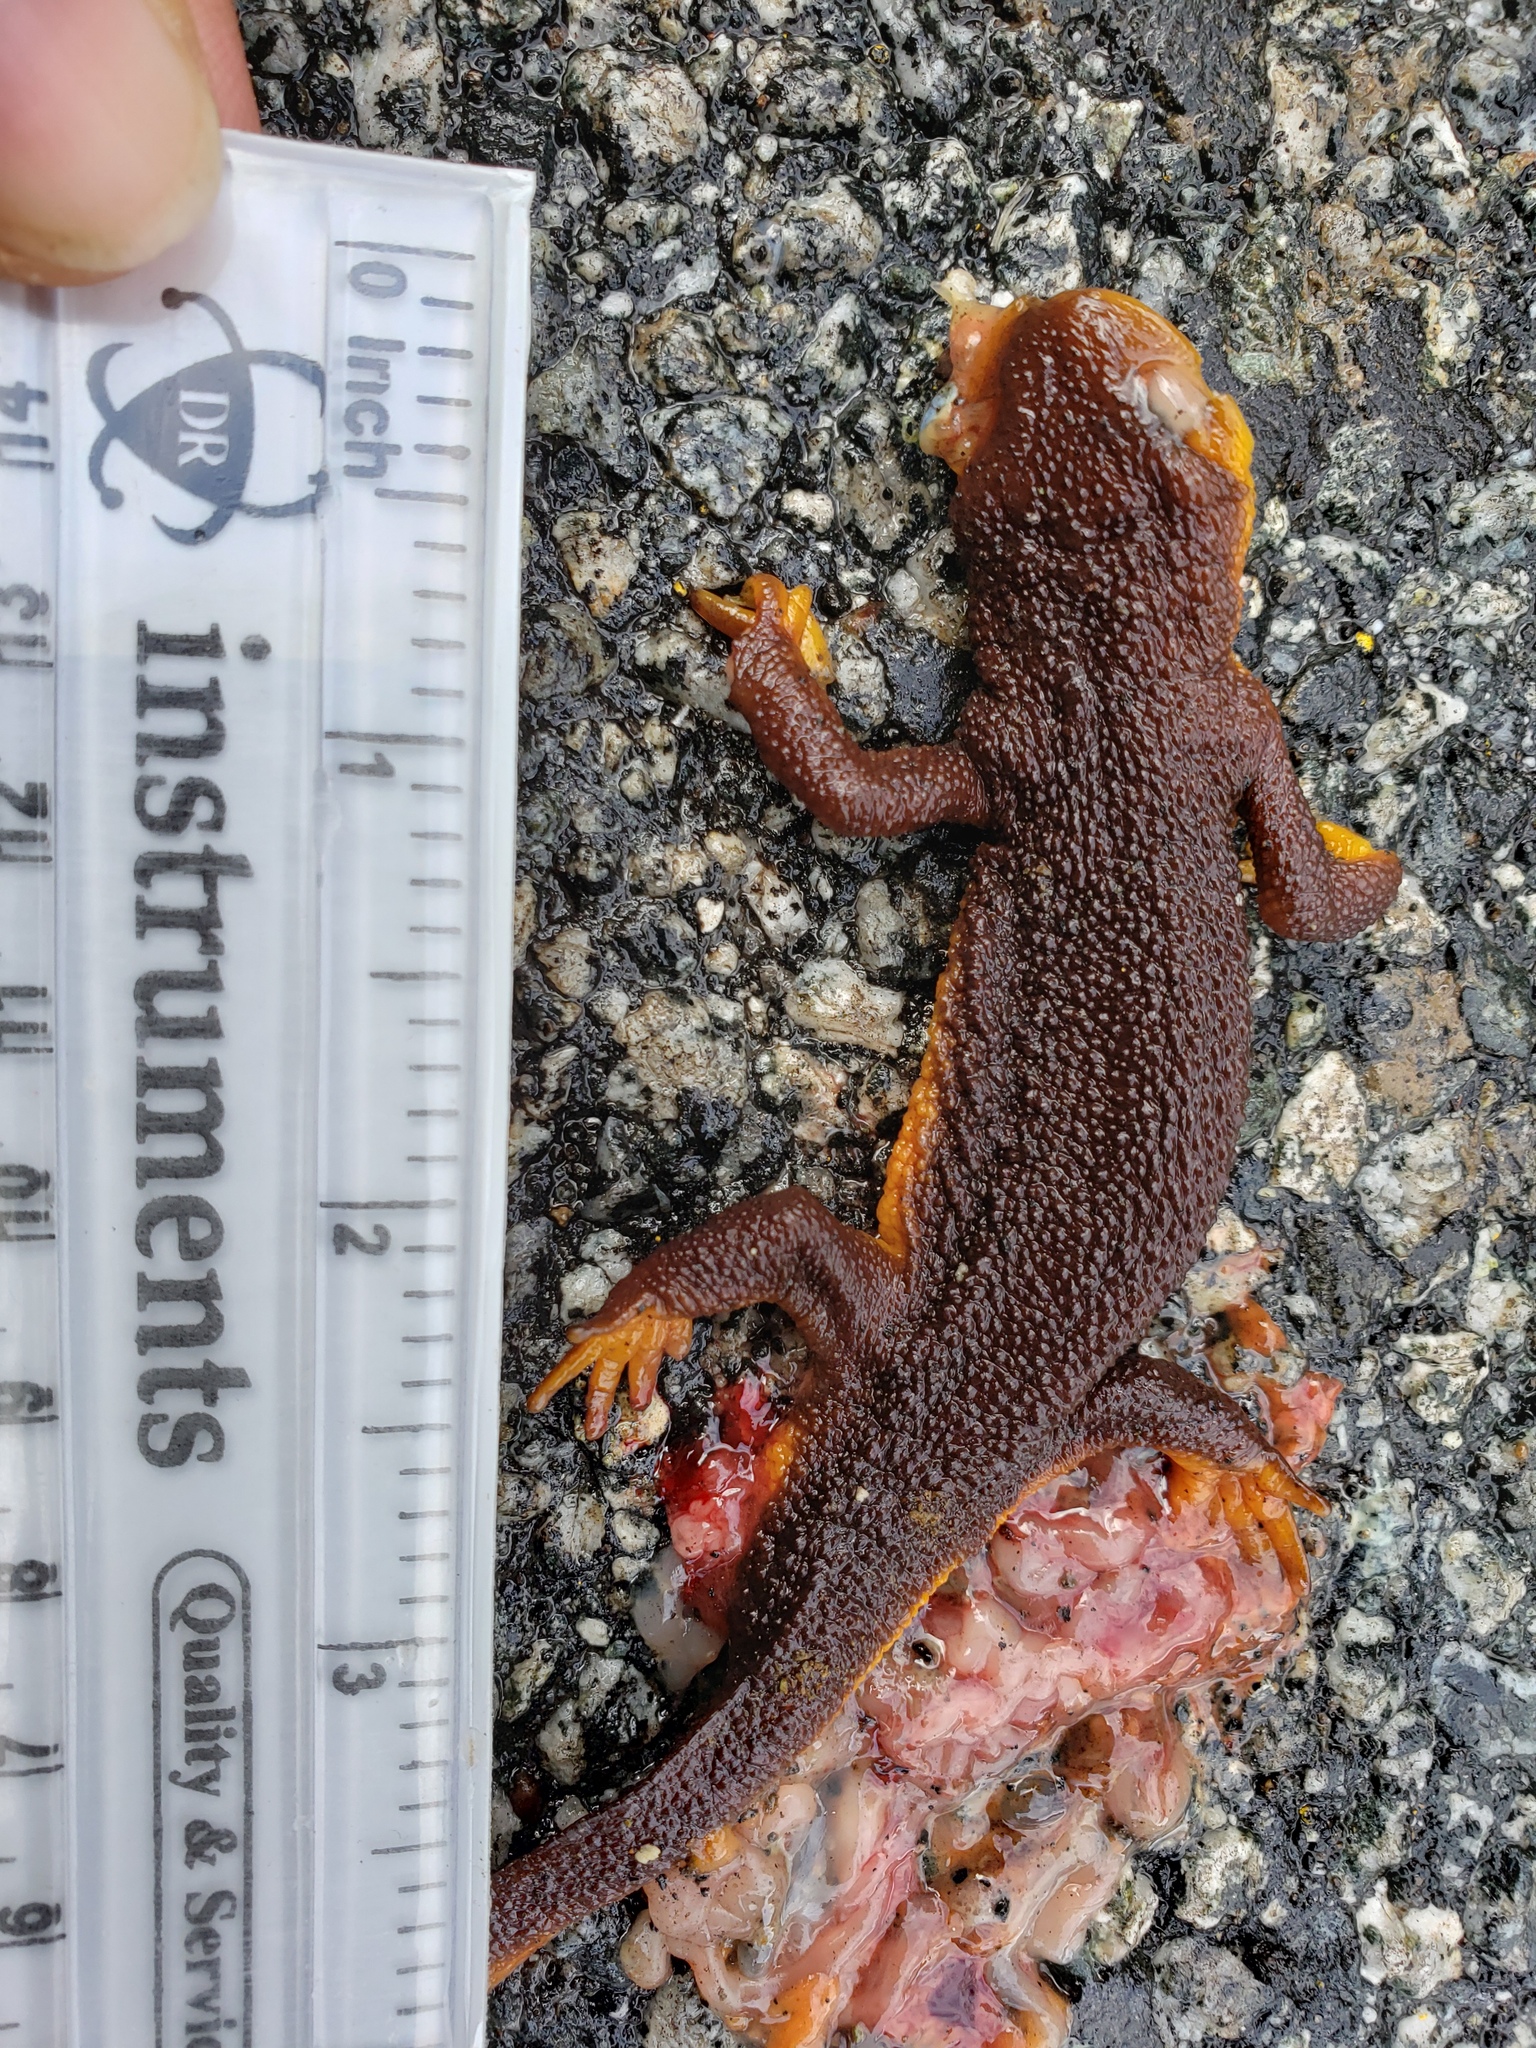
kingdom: Animalia
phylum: Chordata
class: Amphibia
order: Caudata
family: Salamandridae
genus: Taricha
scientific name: Taricha
